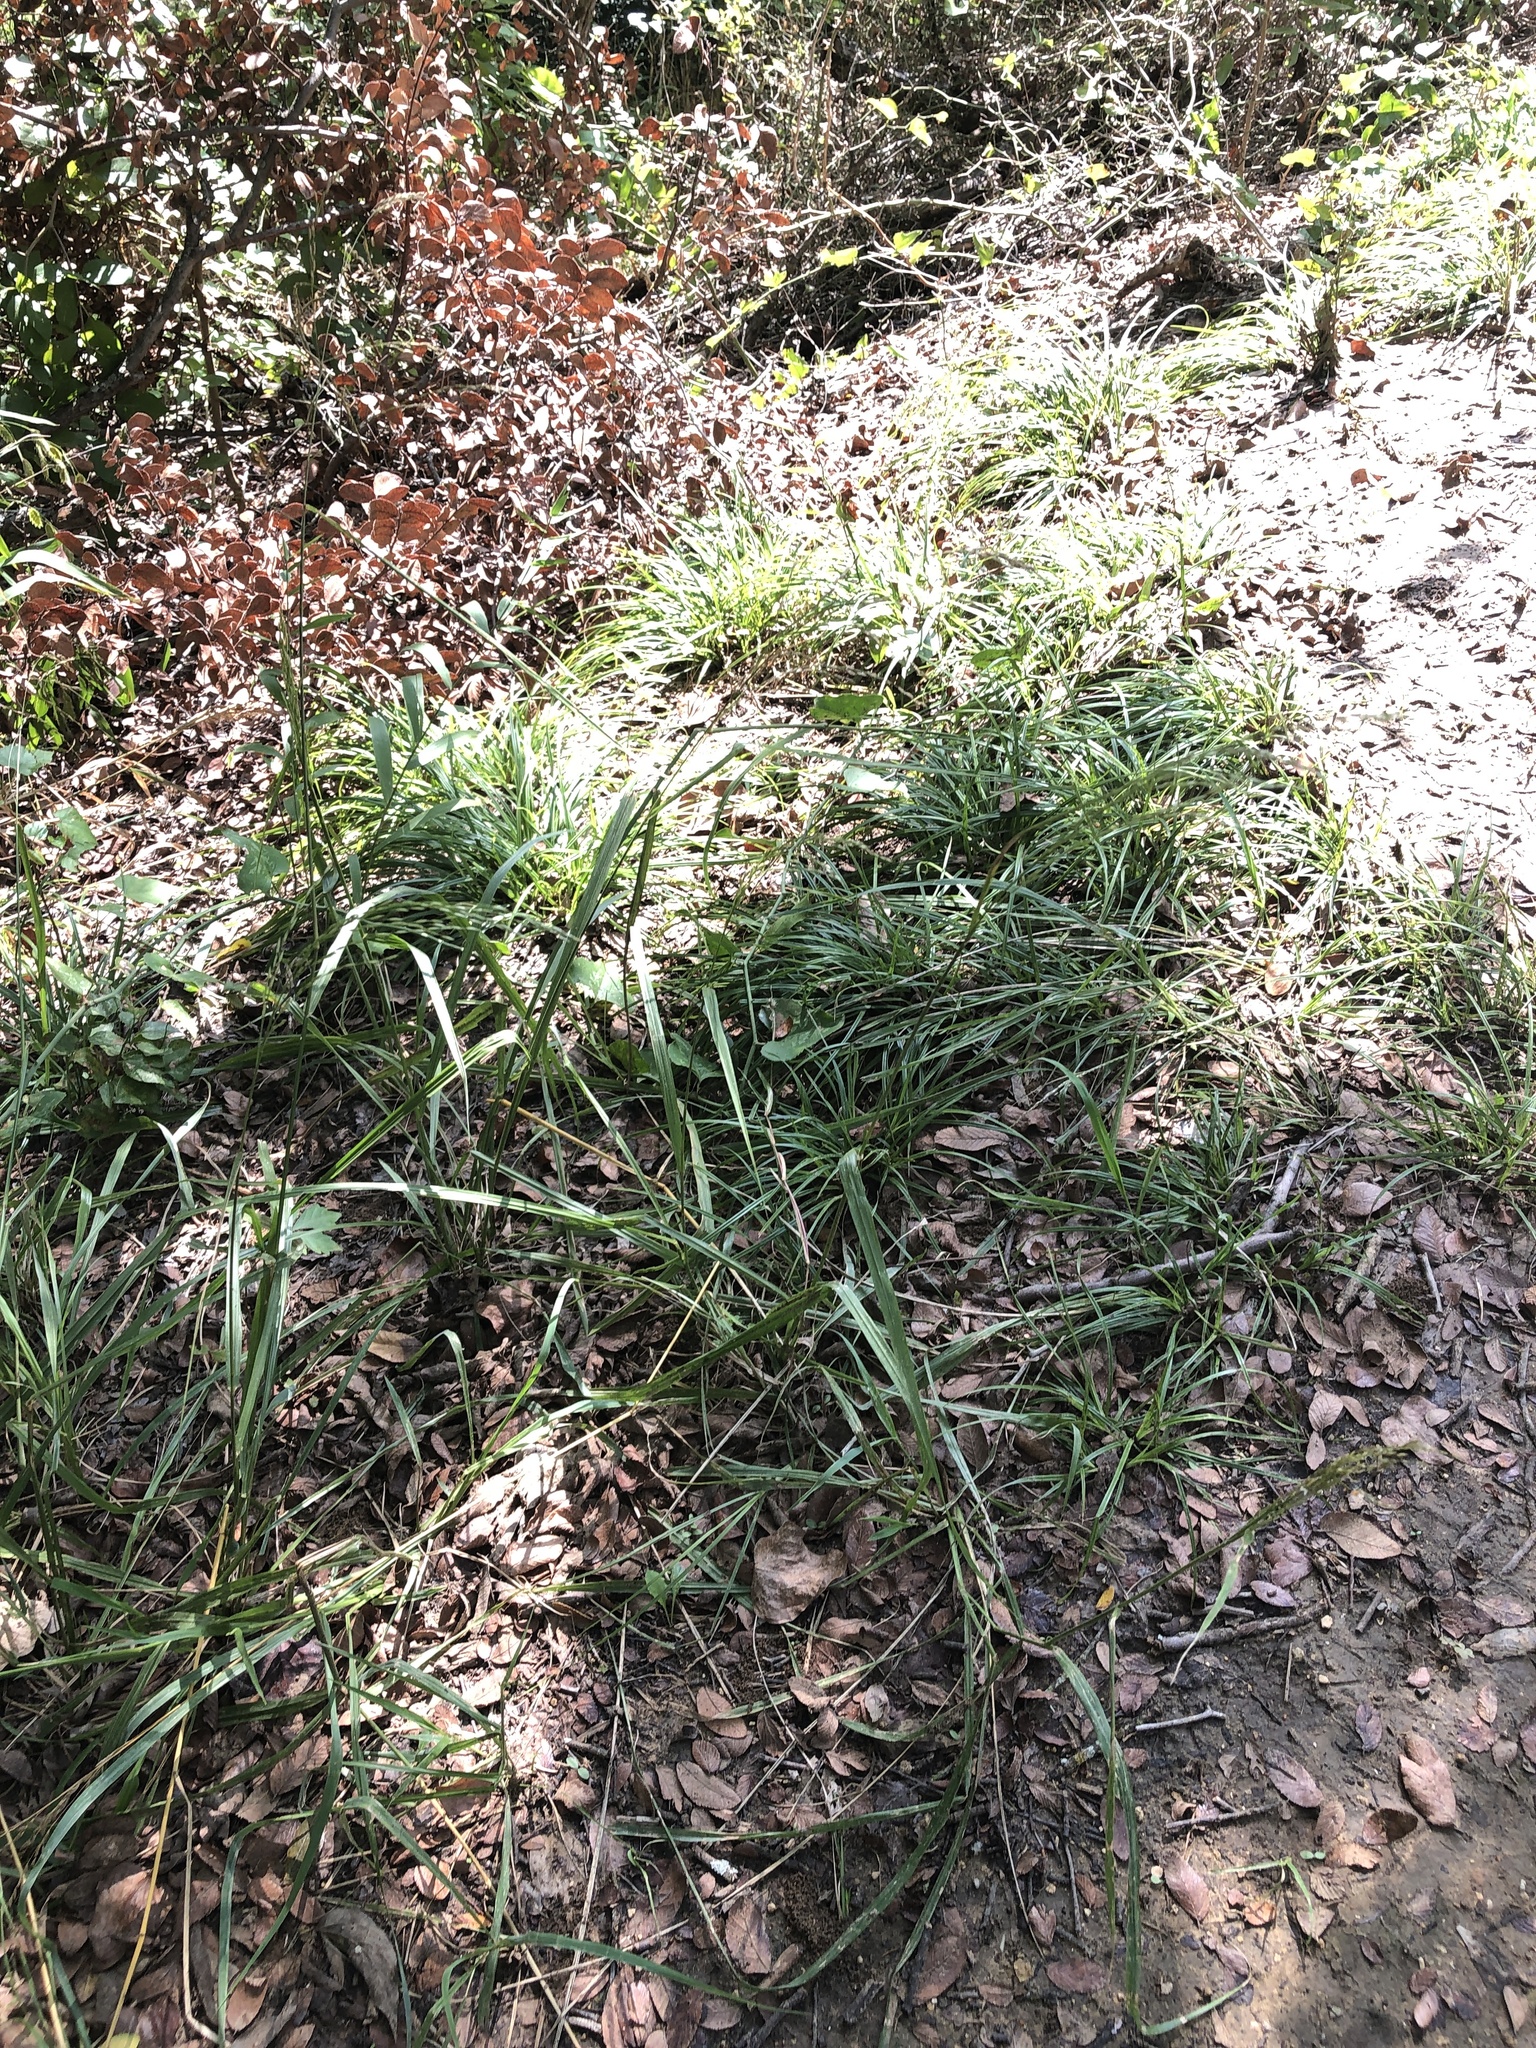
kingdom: Plantae
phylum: Tracheophyta
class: Liliopsida
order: Poales
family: Poaceae
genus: Tridens
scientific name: Tridens flavus
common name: Purpletop
